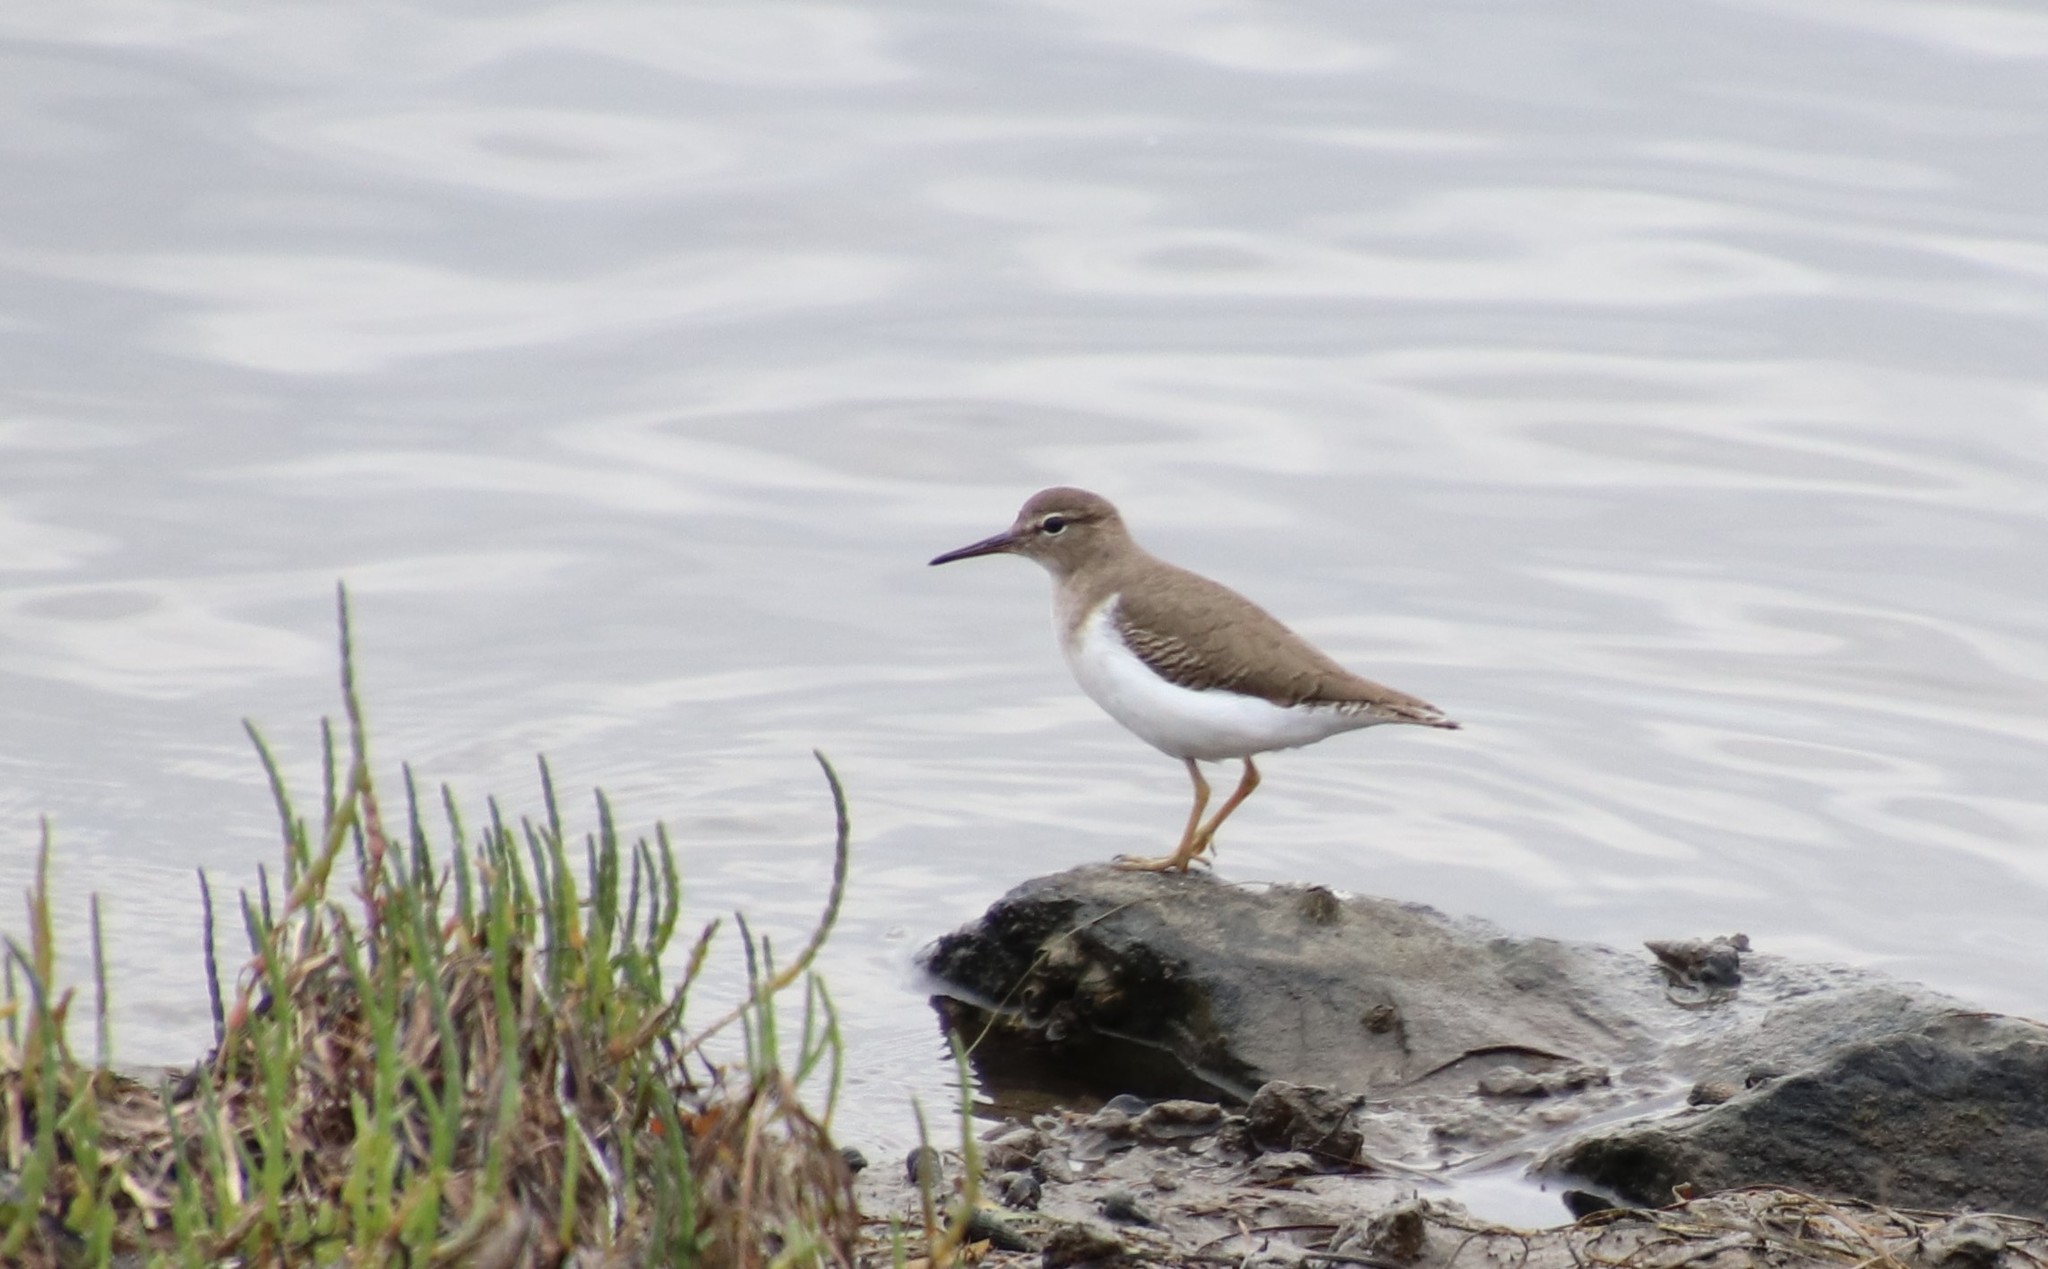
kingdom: Animalia
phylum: Chordata
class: Aves
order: Charadriiformes
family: Scolopacidae
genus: Actitis
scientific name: Actitis macularius
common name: Spotted sandpiper
